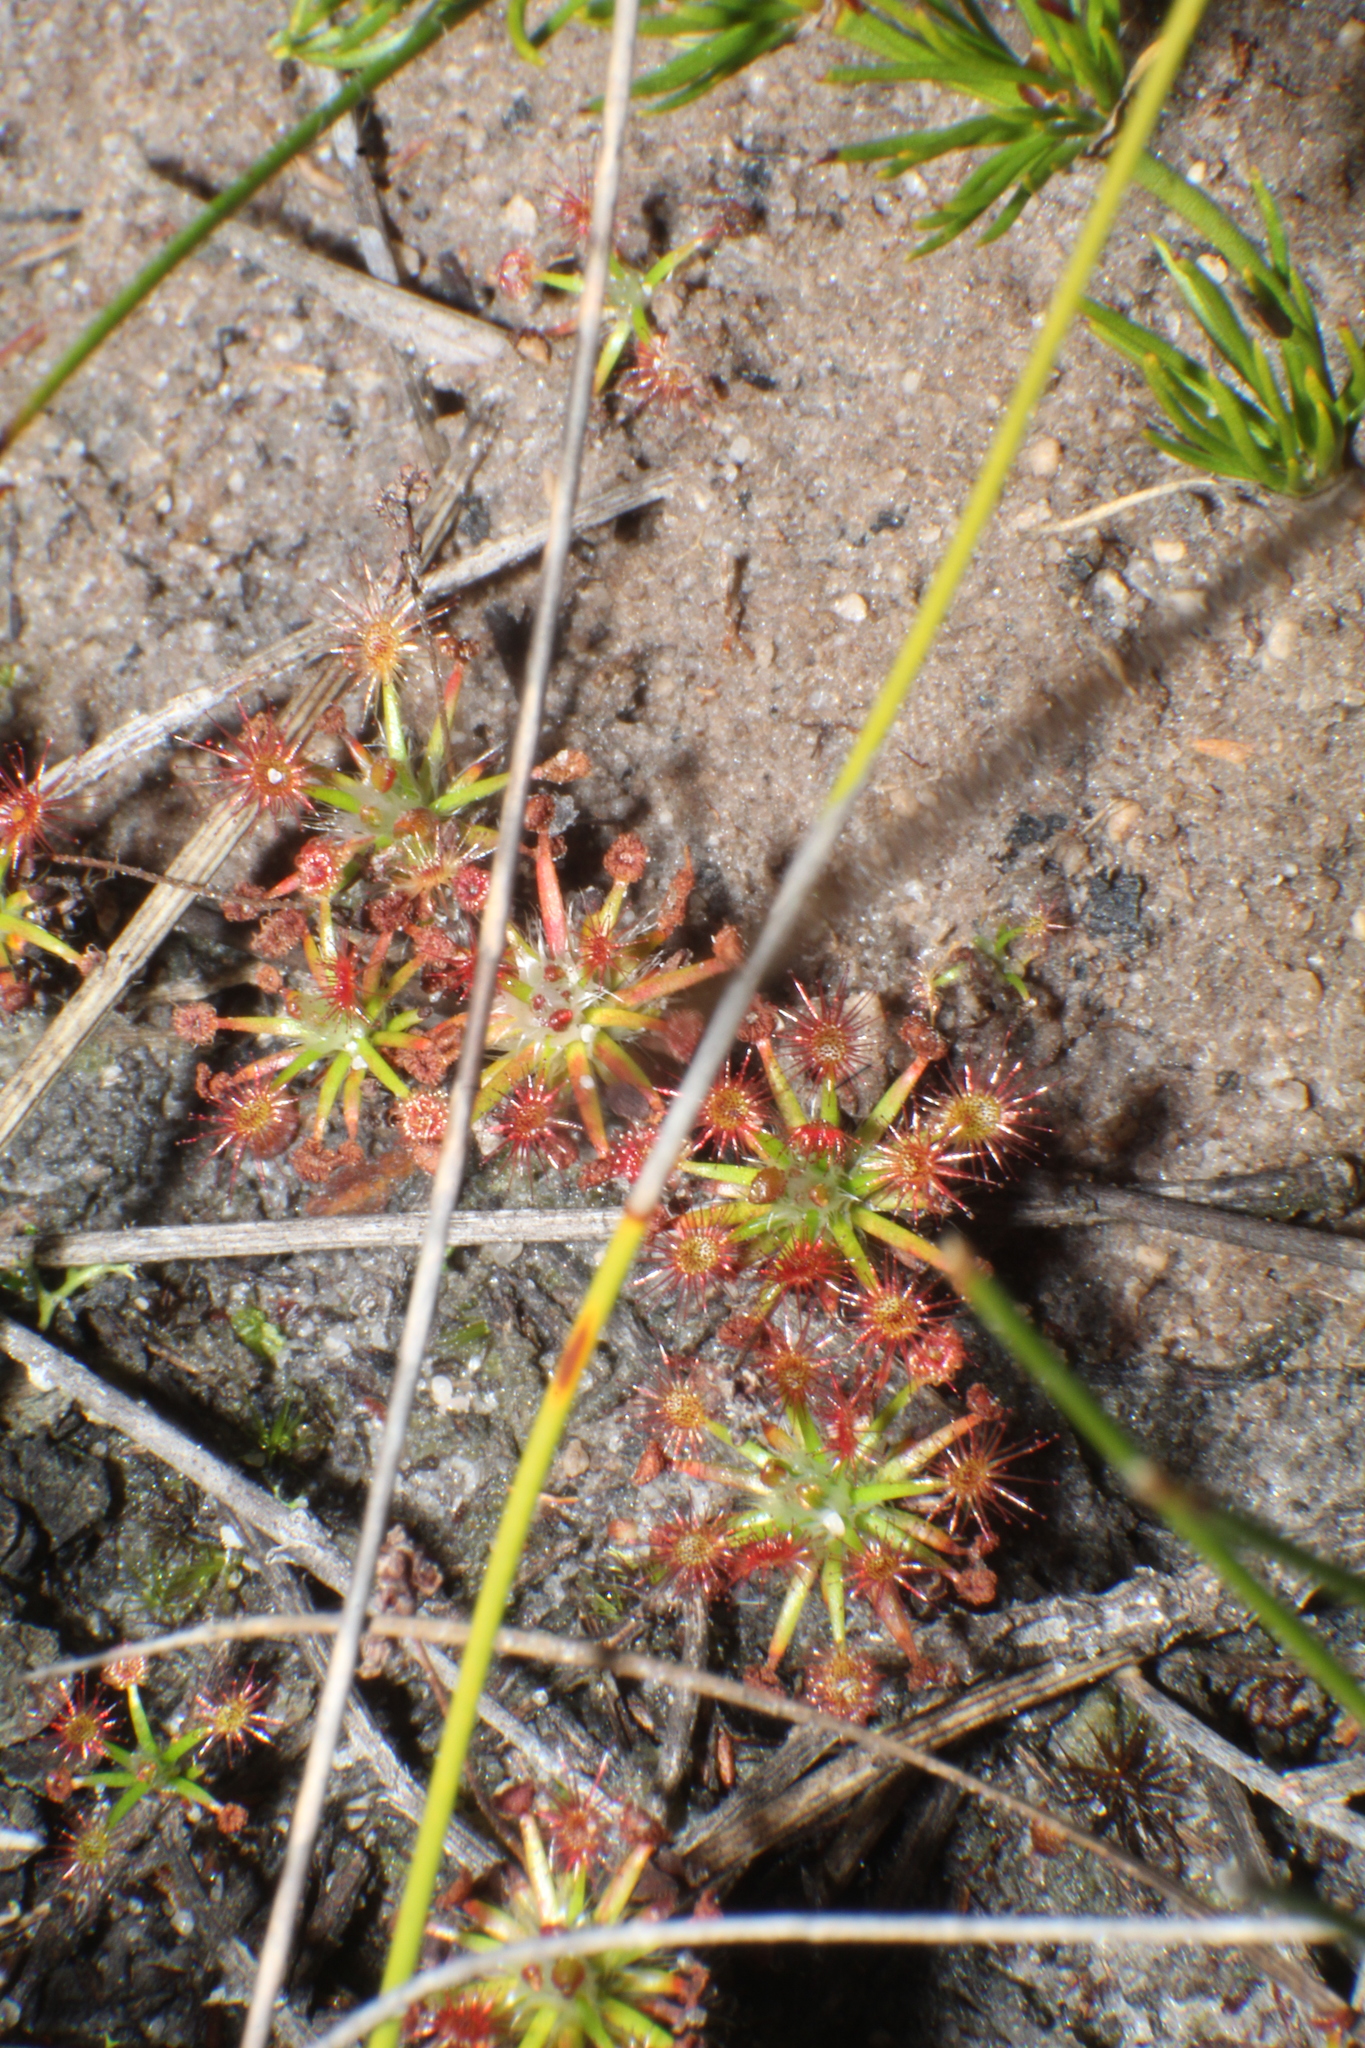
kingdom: Plantae
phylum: Tracheophyta
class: Magnoliopsida
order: Caryophyllales
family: Droseraceae
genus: Drosera
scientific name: Drosera verrucata
